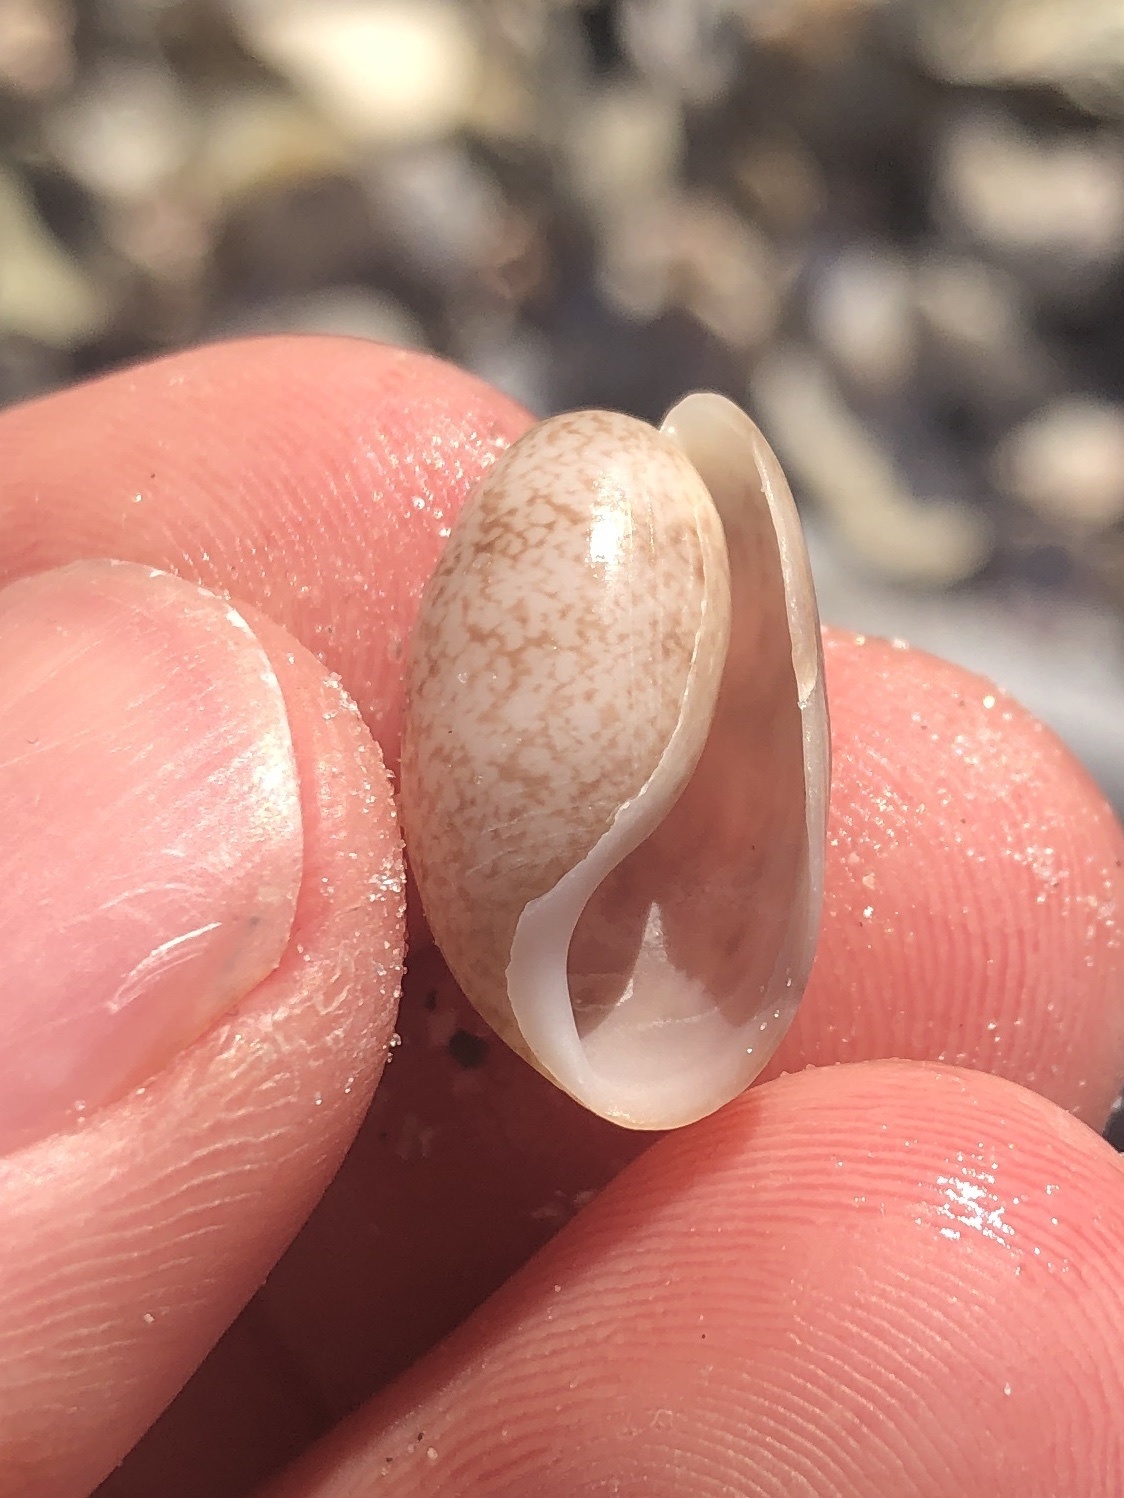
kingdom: Animalia
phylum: Mollusca
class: Gastropoda
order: Cephalaspidea
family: Bullidae
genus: Bulla
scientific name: Bulla occidentalis
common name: Common west-indian bubble
